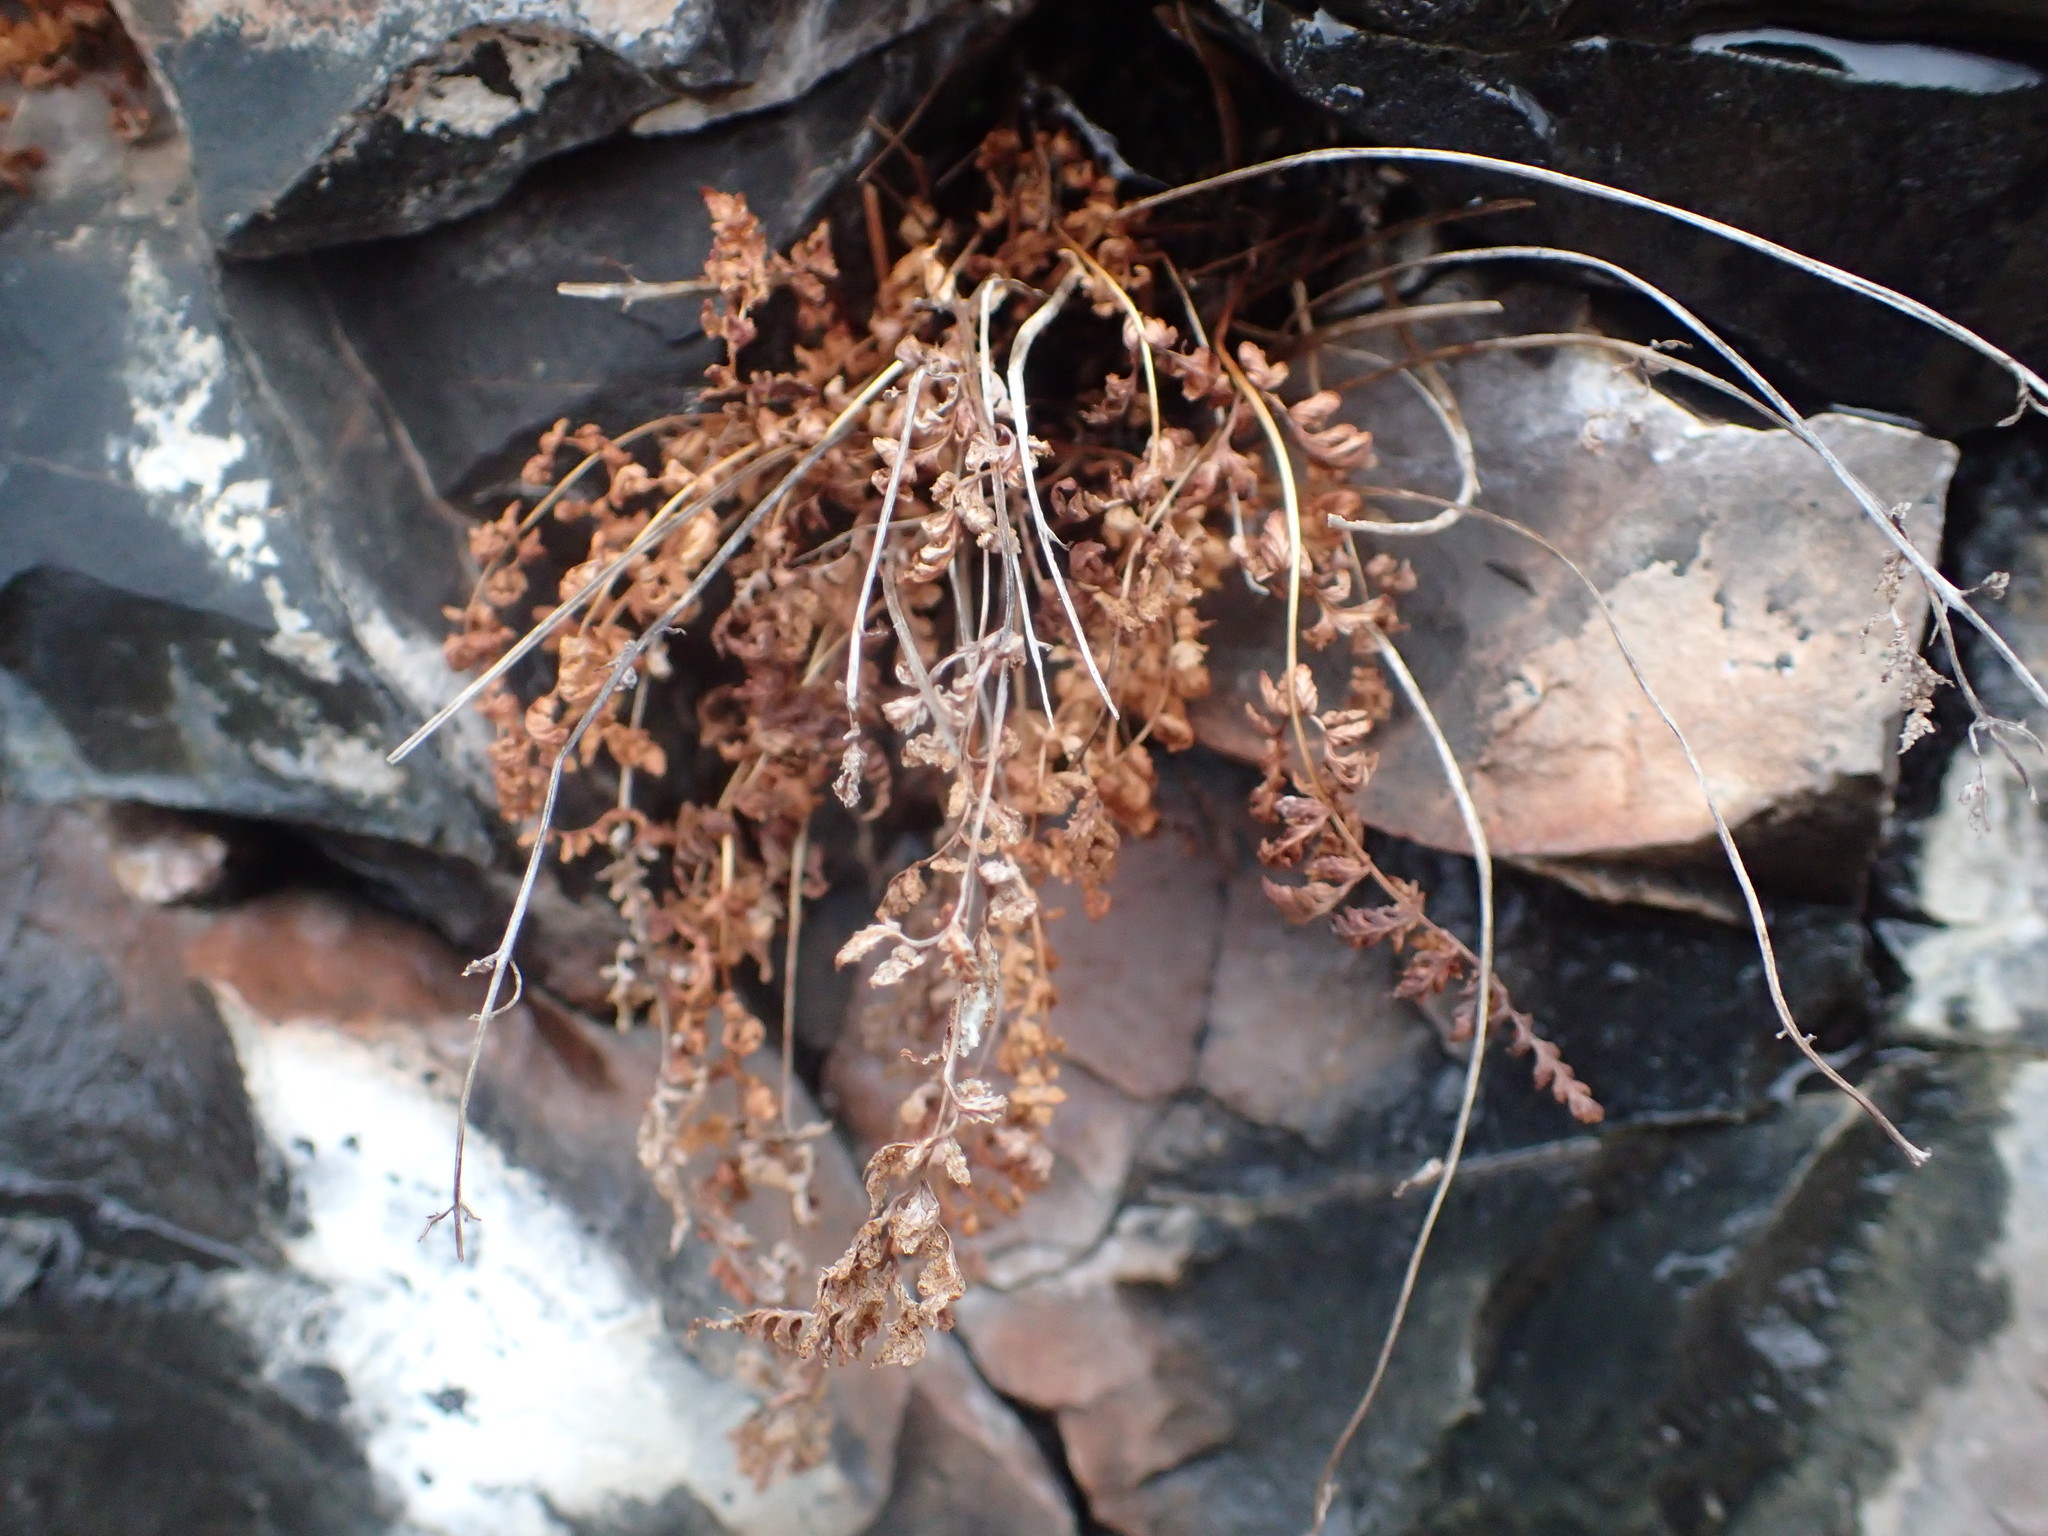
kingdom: Plantae
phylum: Tracheophyta
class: Polypodiopsida
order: Polypodiales
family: Cystopteridaceae
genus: Cystopteris
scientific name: Cystopteris fragilis
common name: Brittle bladder fern
